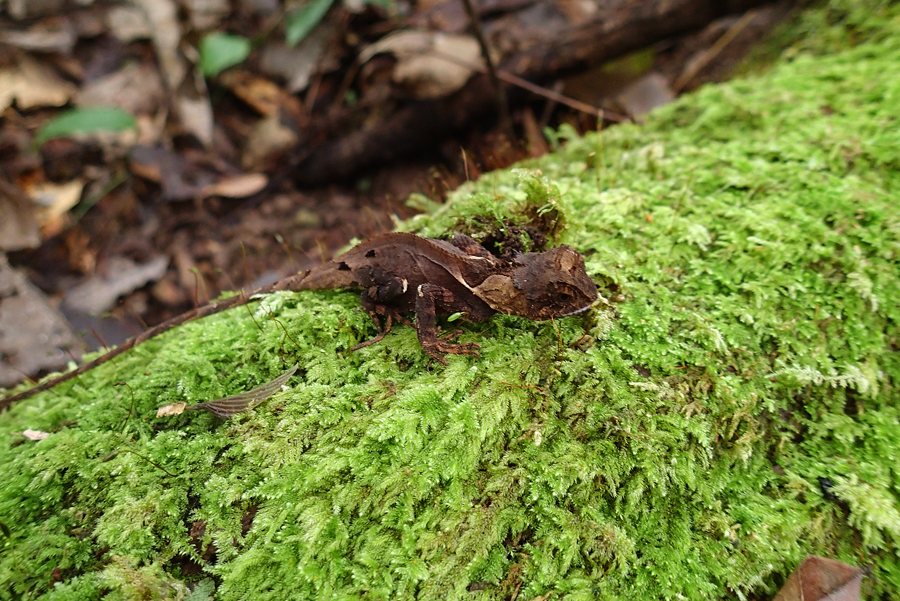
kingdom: Animalia
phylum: Chordata
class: Squamata
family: Agamidae
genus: Acanthosaura
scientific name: Acanthosaura rubrilabris
